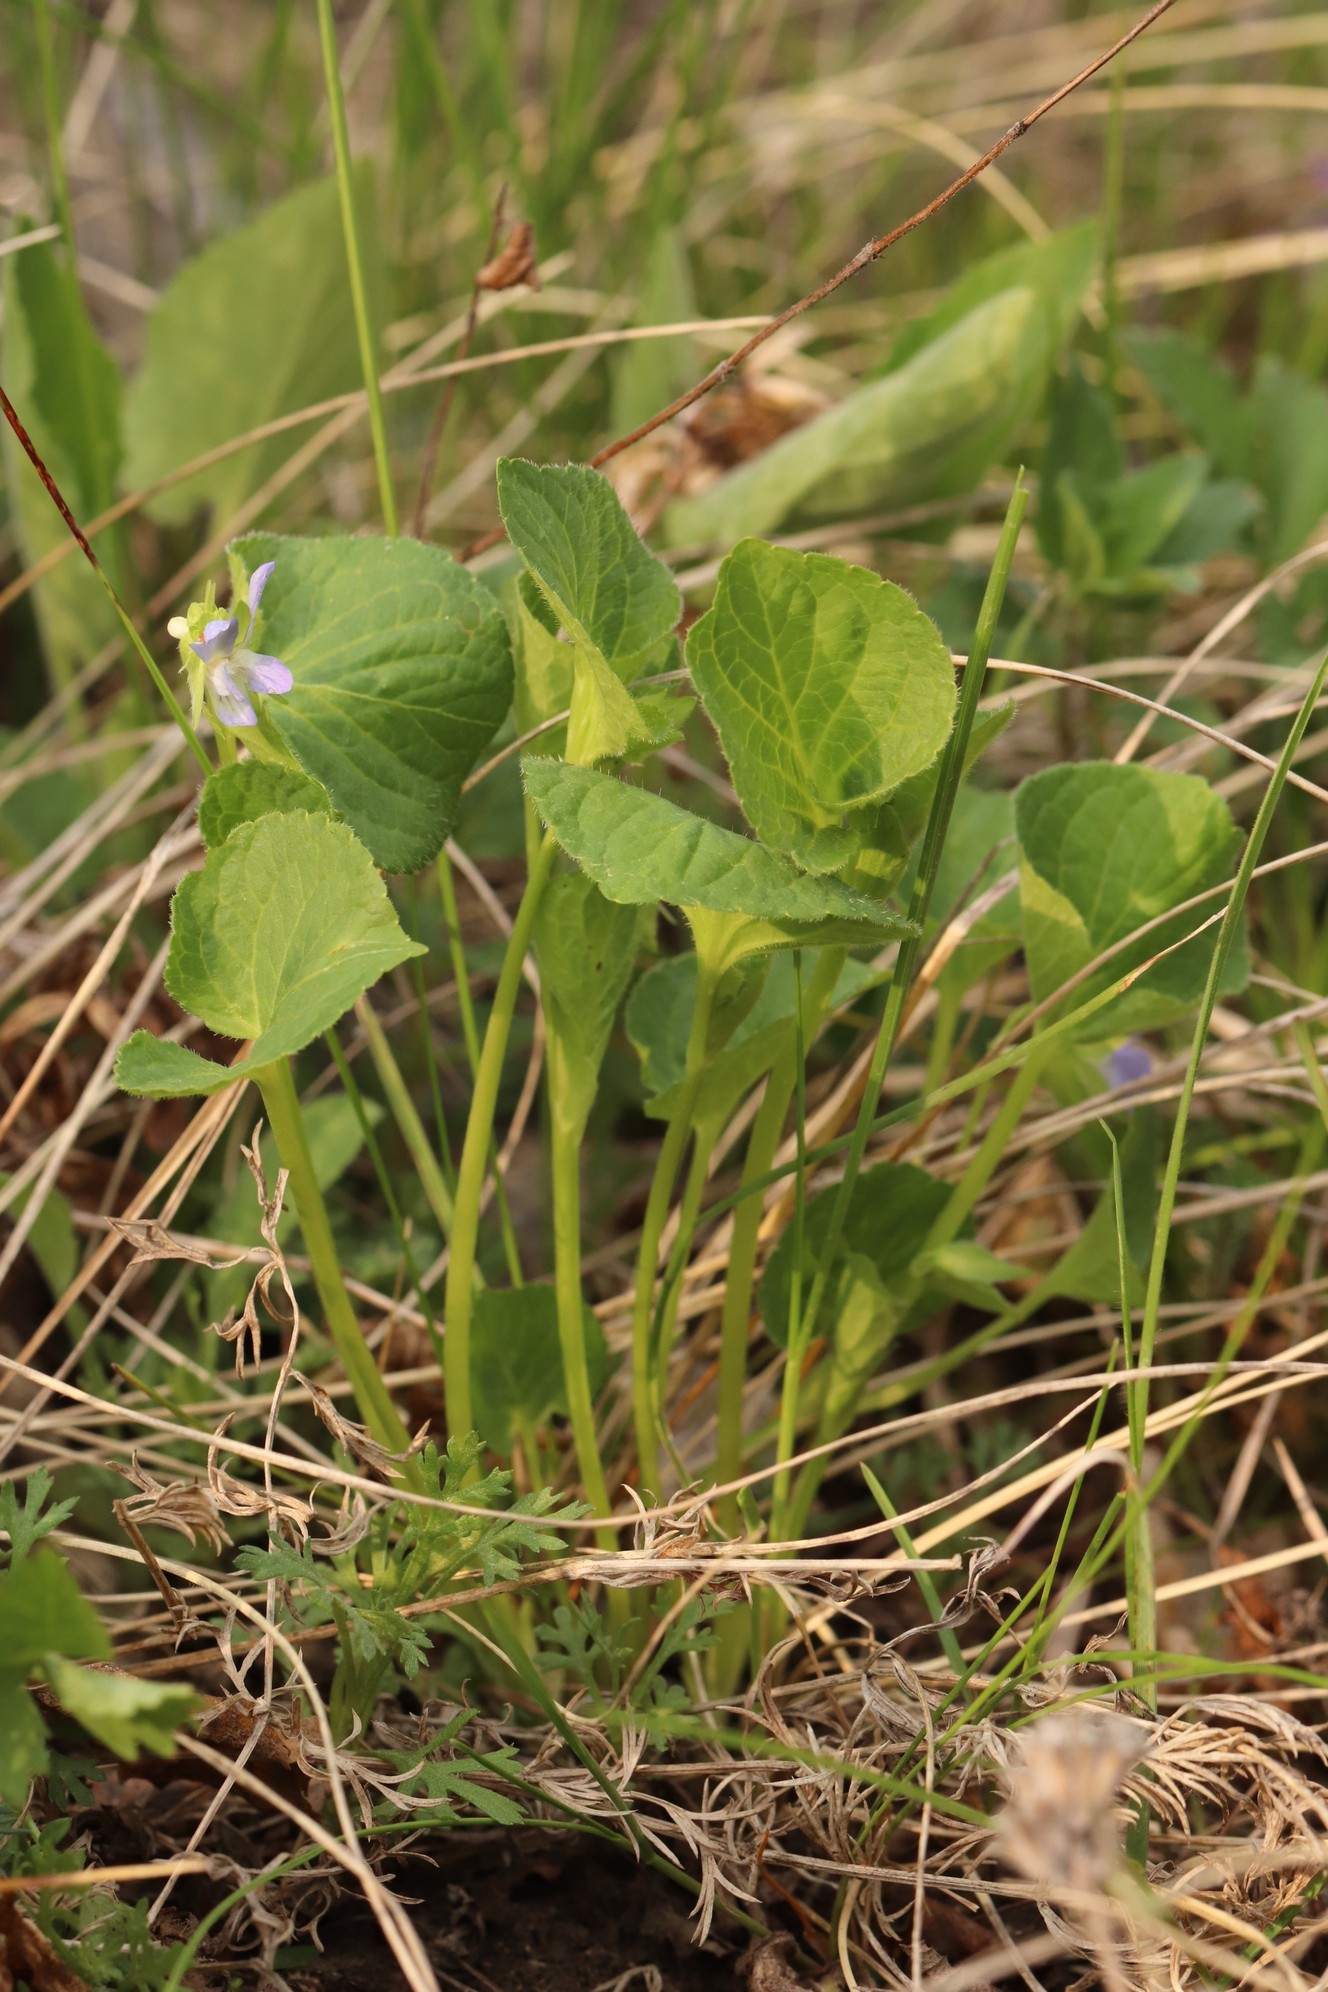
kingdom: Plantae
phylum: Tracheophyta
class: Magnoliopsida
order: Malpighiales
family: Violaceae
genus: Viola
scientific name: Viola mirabilis
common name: Wonder violet
